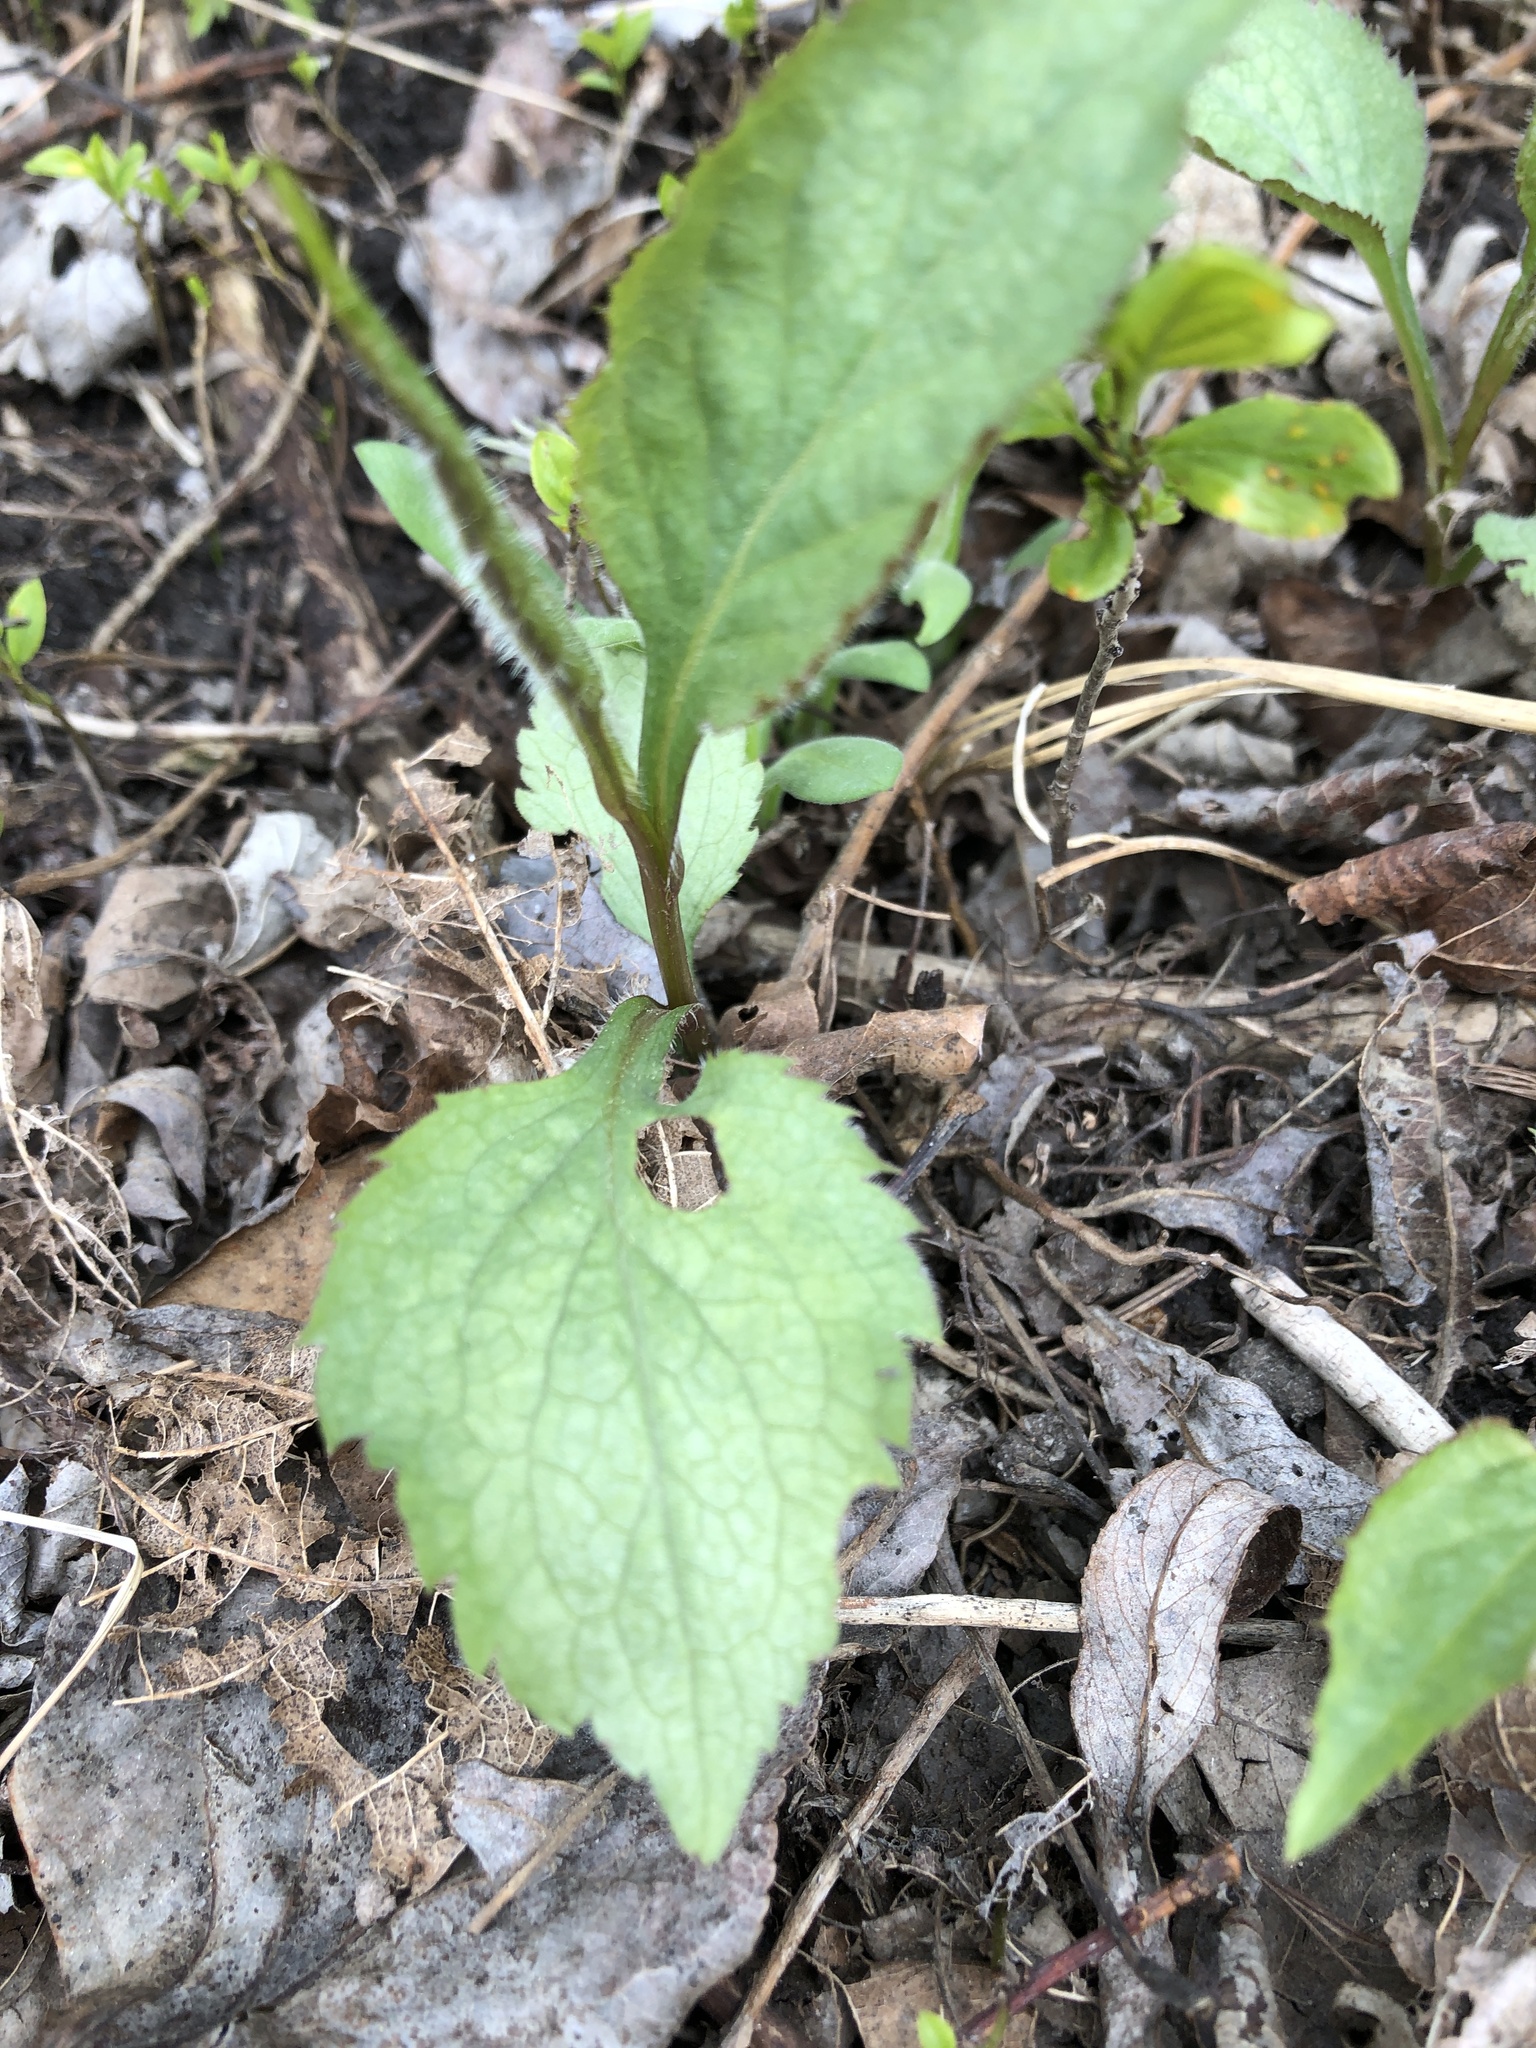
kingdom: Plantae
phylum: Tracheophyta
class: Magnoliopsida
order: Asterales
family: Asteraceae
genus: Solidago
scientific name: Solidago flexicaulis
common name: Zig-zag goldenrod
